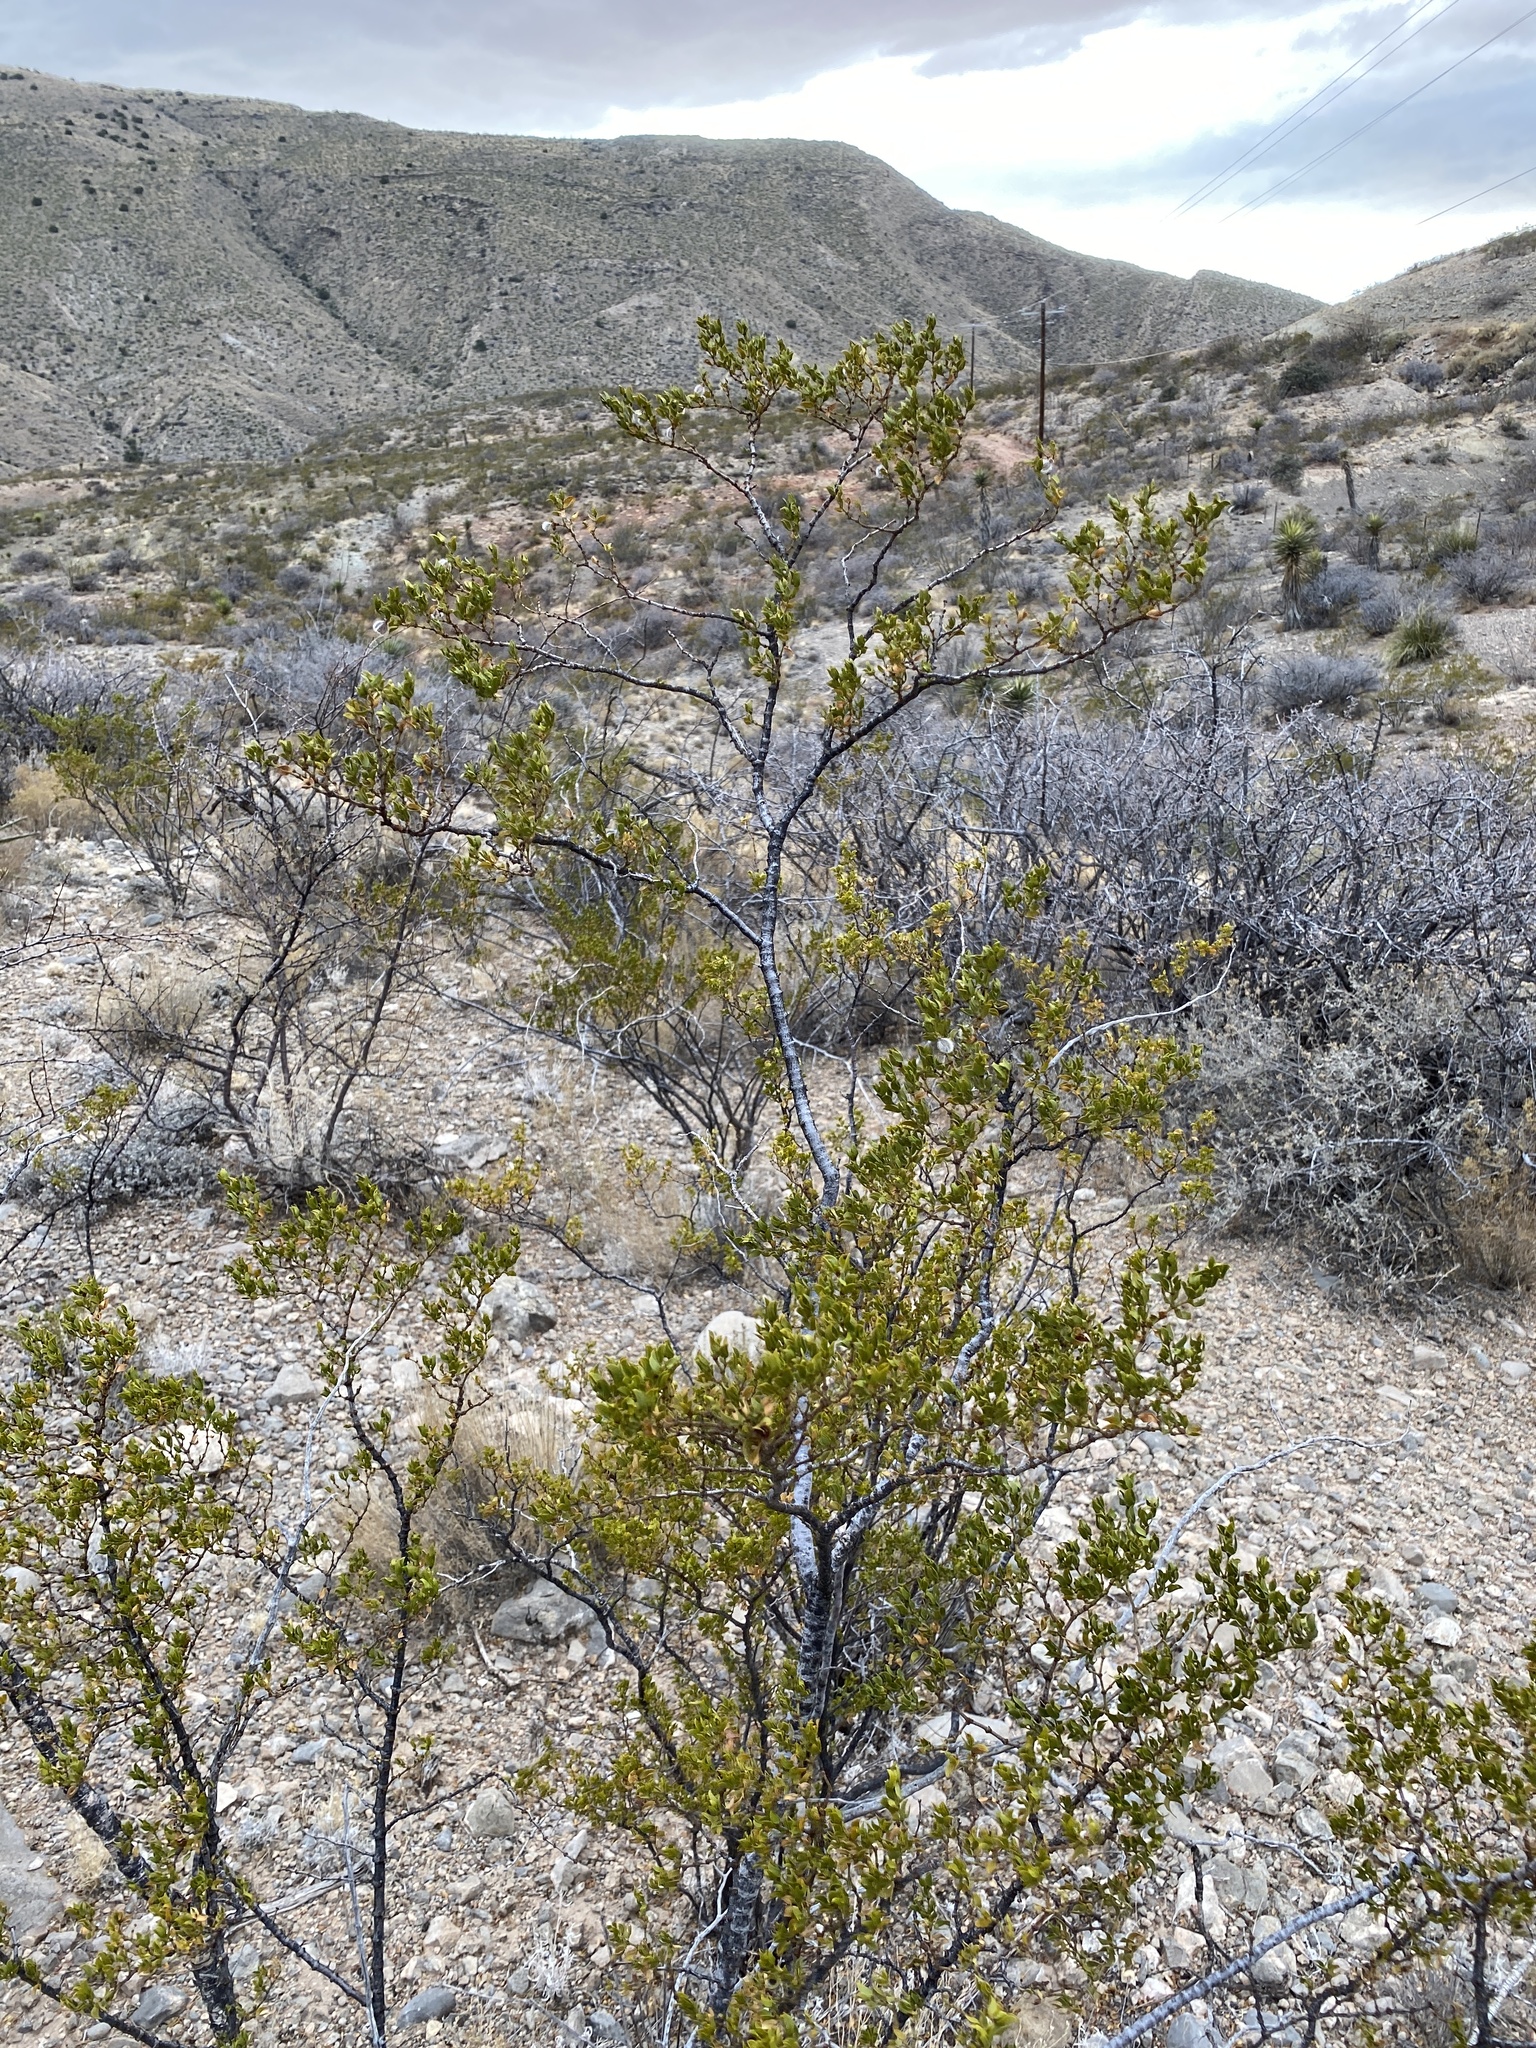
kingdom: Plantae
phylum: Tracheophyta
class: Magnoliopsida
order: Zygophyllales
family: Zygophyllaceae
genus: Larrea
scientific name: Larrea tridentata
